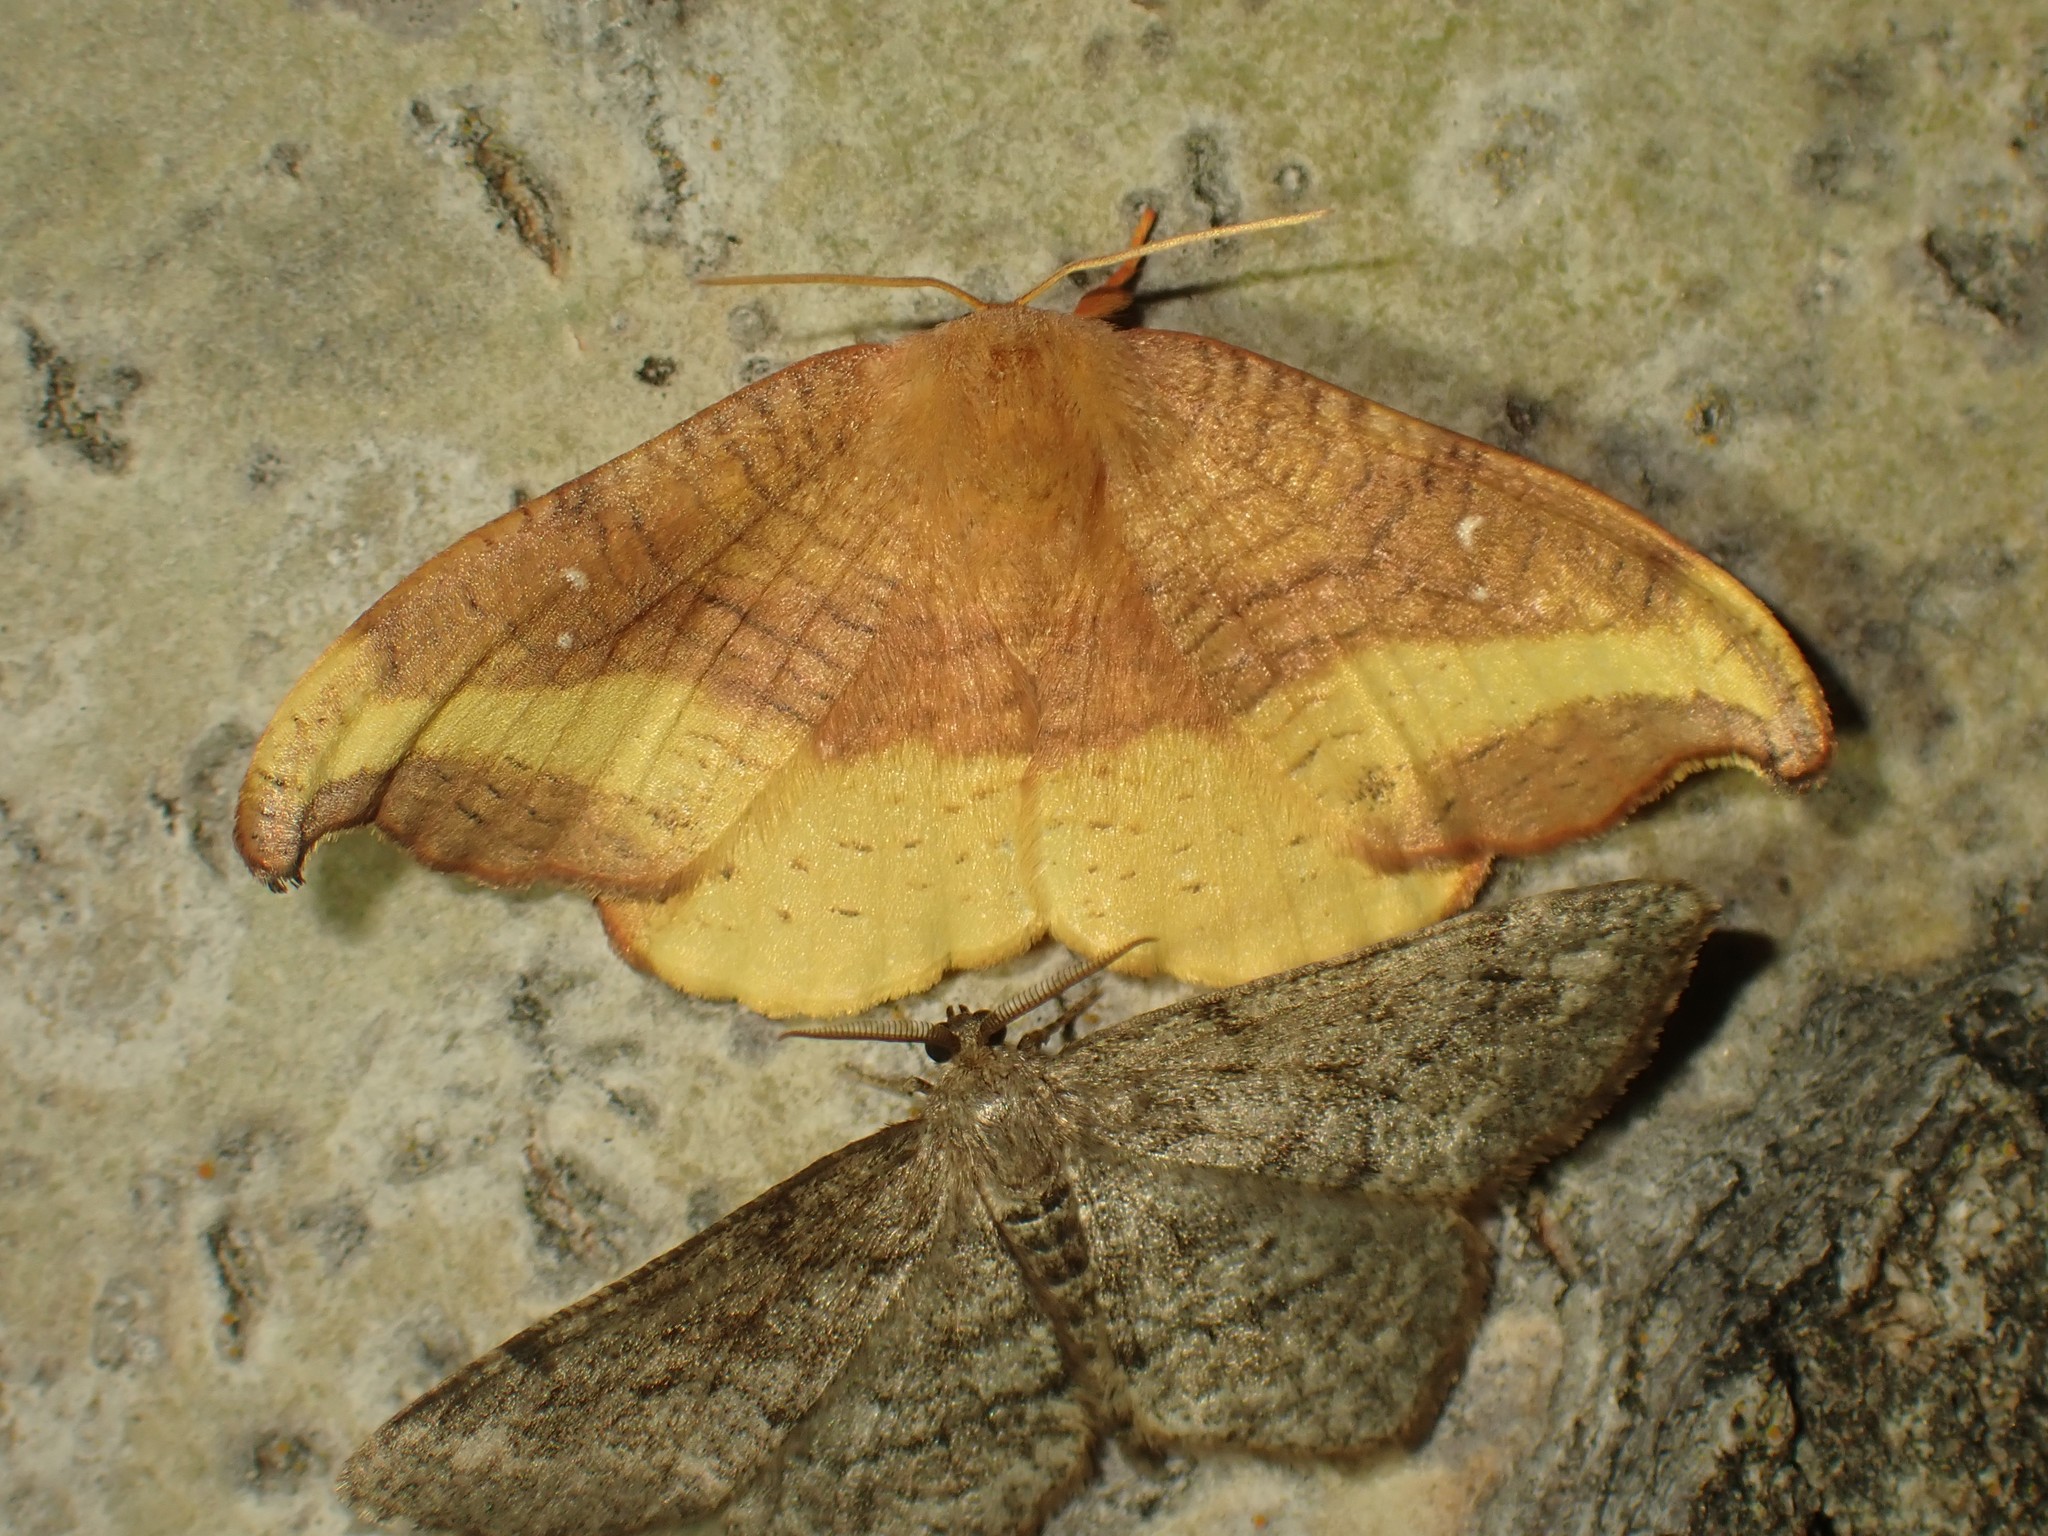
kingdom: Animalia
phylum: Arthropoda
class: Insecta
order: Lepidoptera
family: Drepanidae
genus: Oreta
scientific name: Oreta rosea
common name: Rose hooktip
